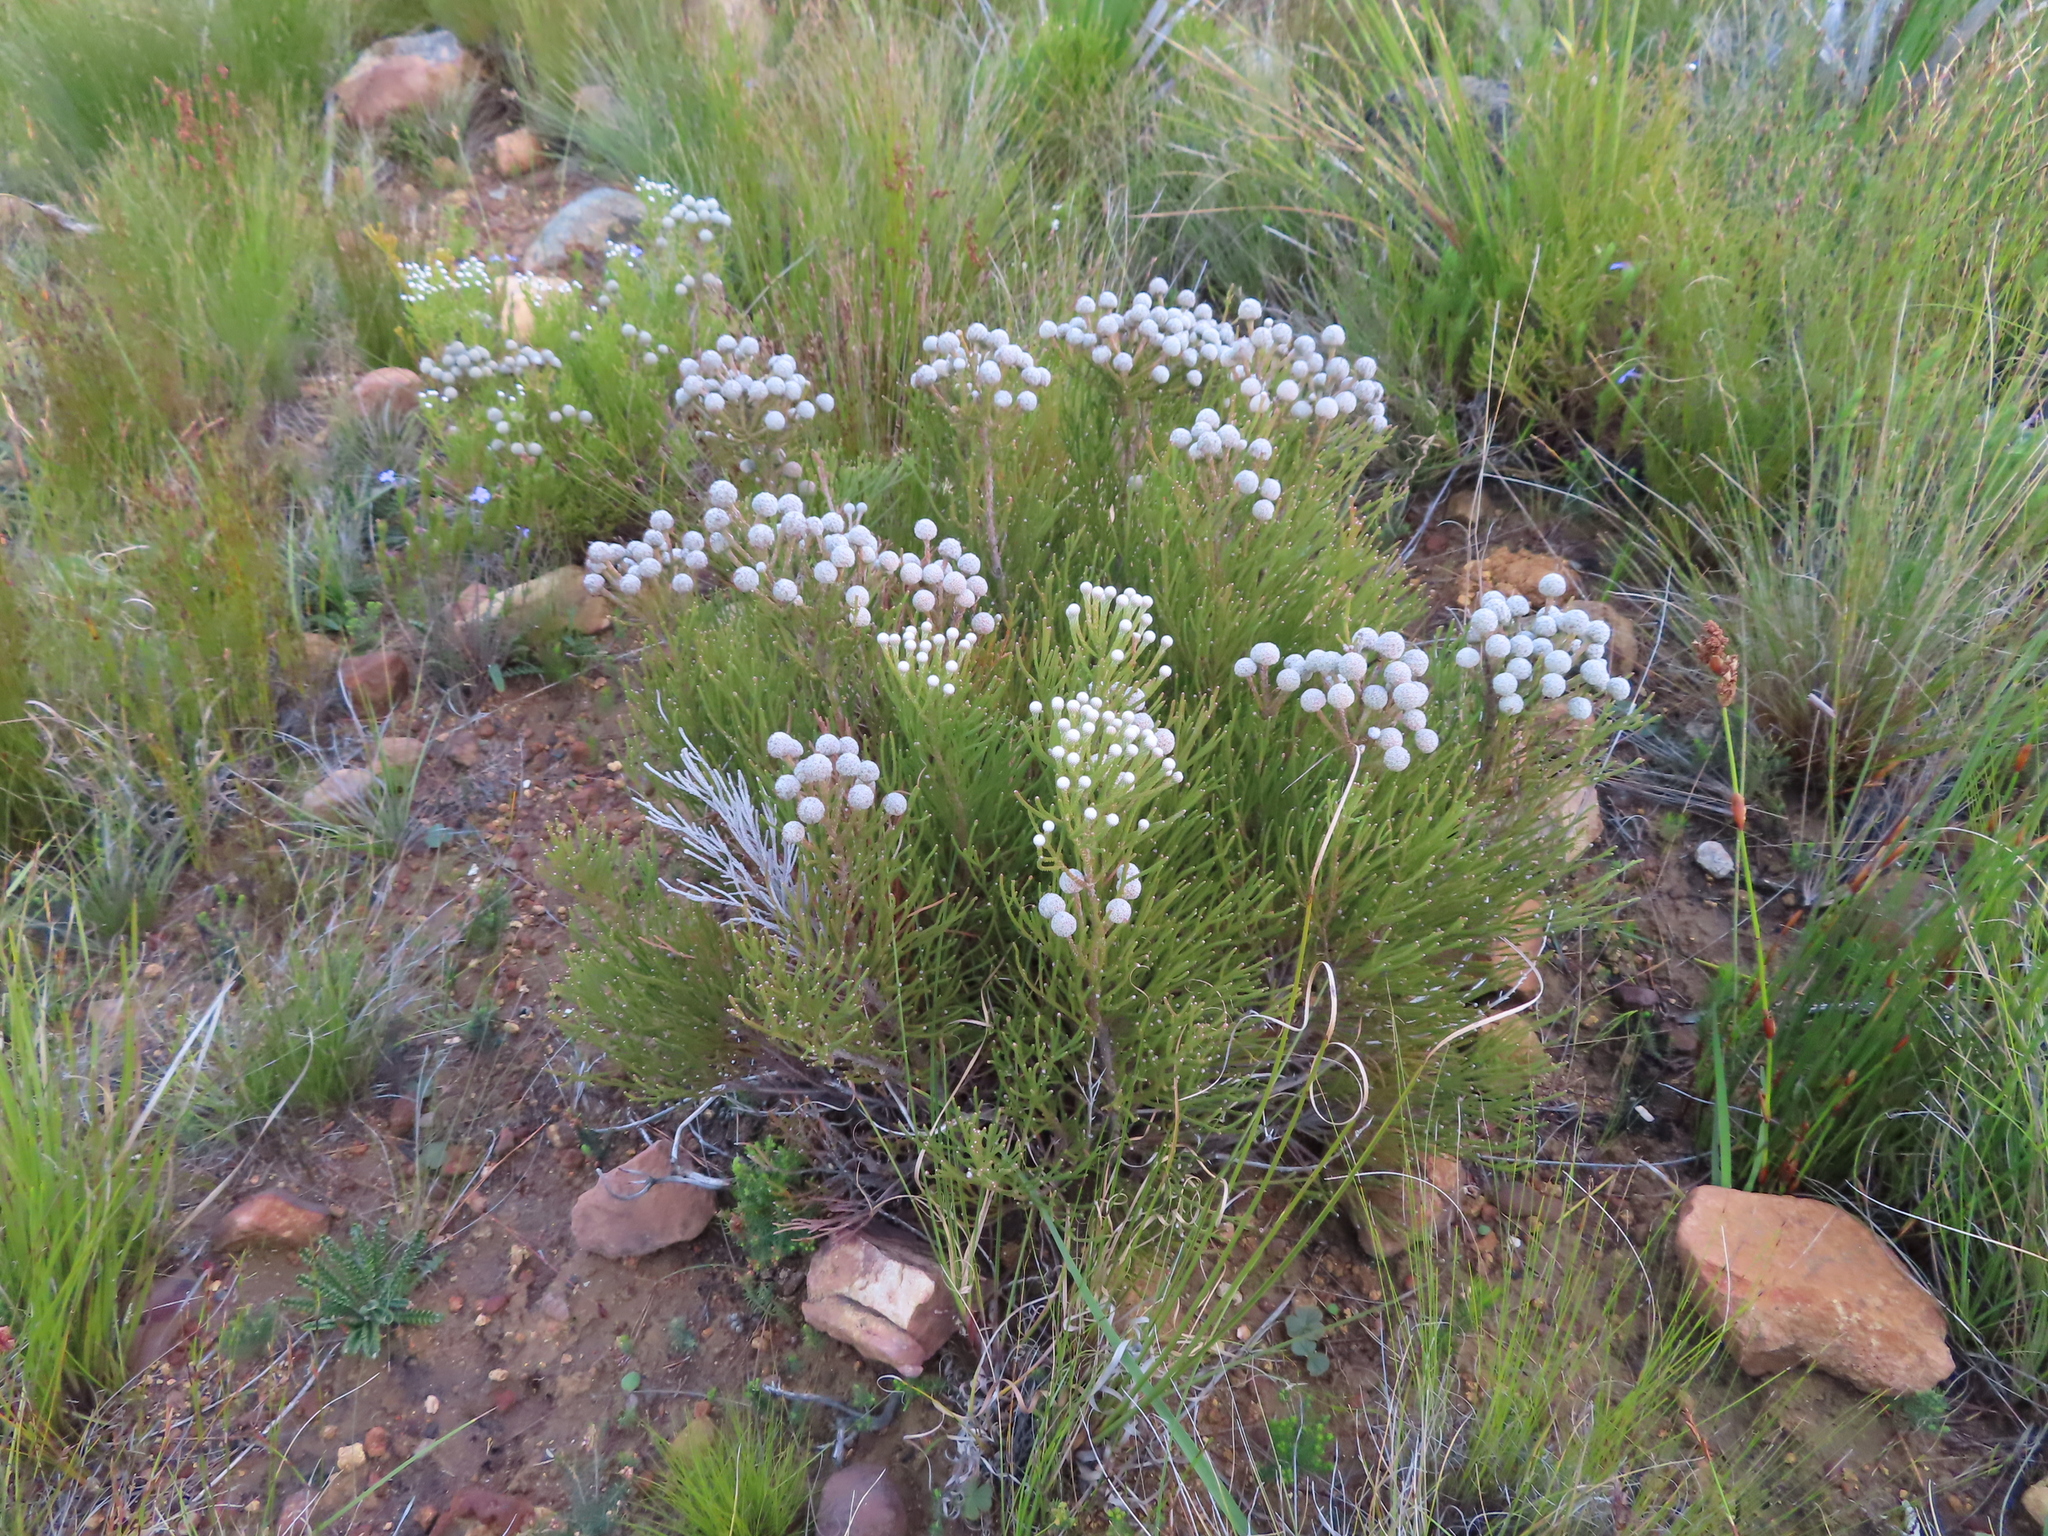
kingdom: Plantae
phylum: Tracheophyta
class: Magnoliopsida
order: Bruniales
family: Bruniaceae
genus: Brunia
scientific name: Brunia noduliflora
